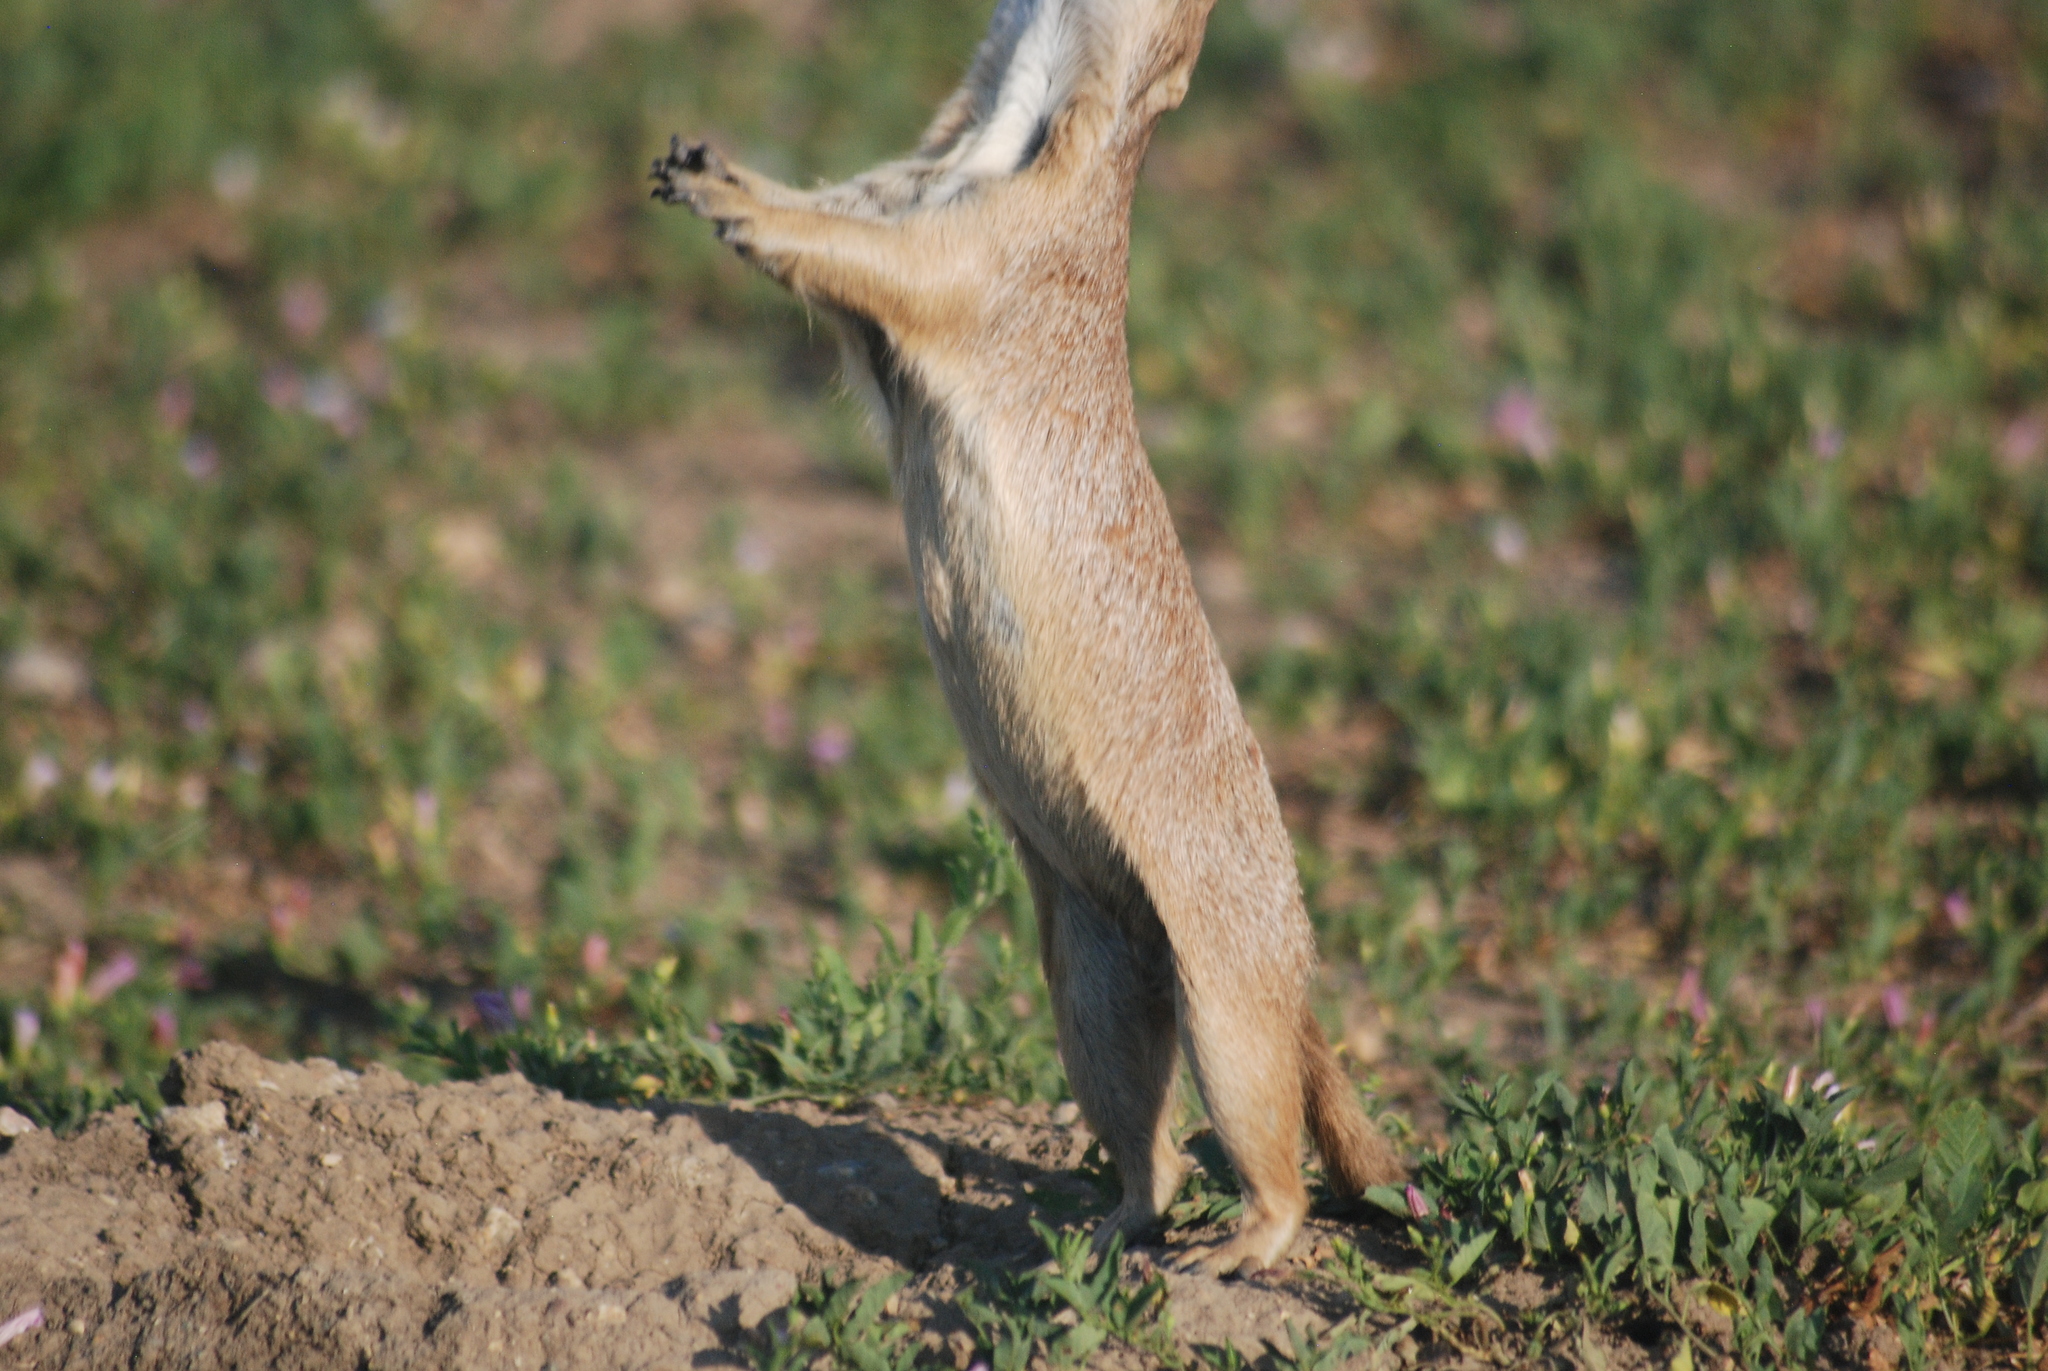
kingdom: Animalia
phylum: Chordata
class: Mammalia
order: Rodentia
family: Sciuridae
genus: Cynomys
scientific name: Cynomys ludovicianus
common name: Black-tailed prairie dog
